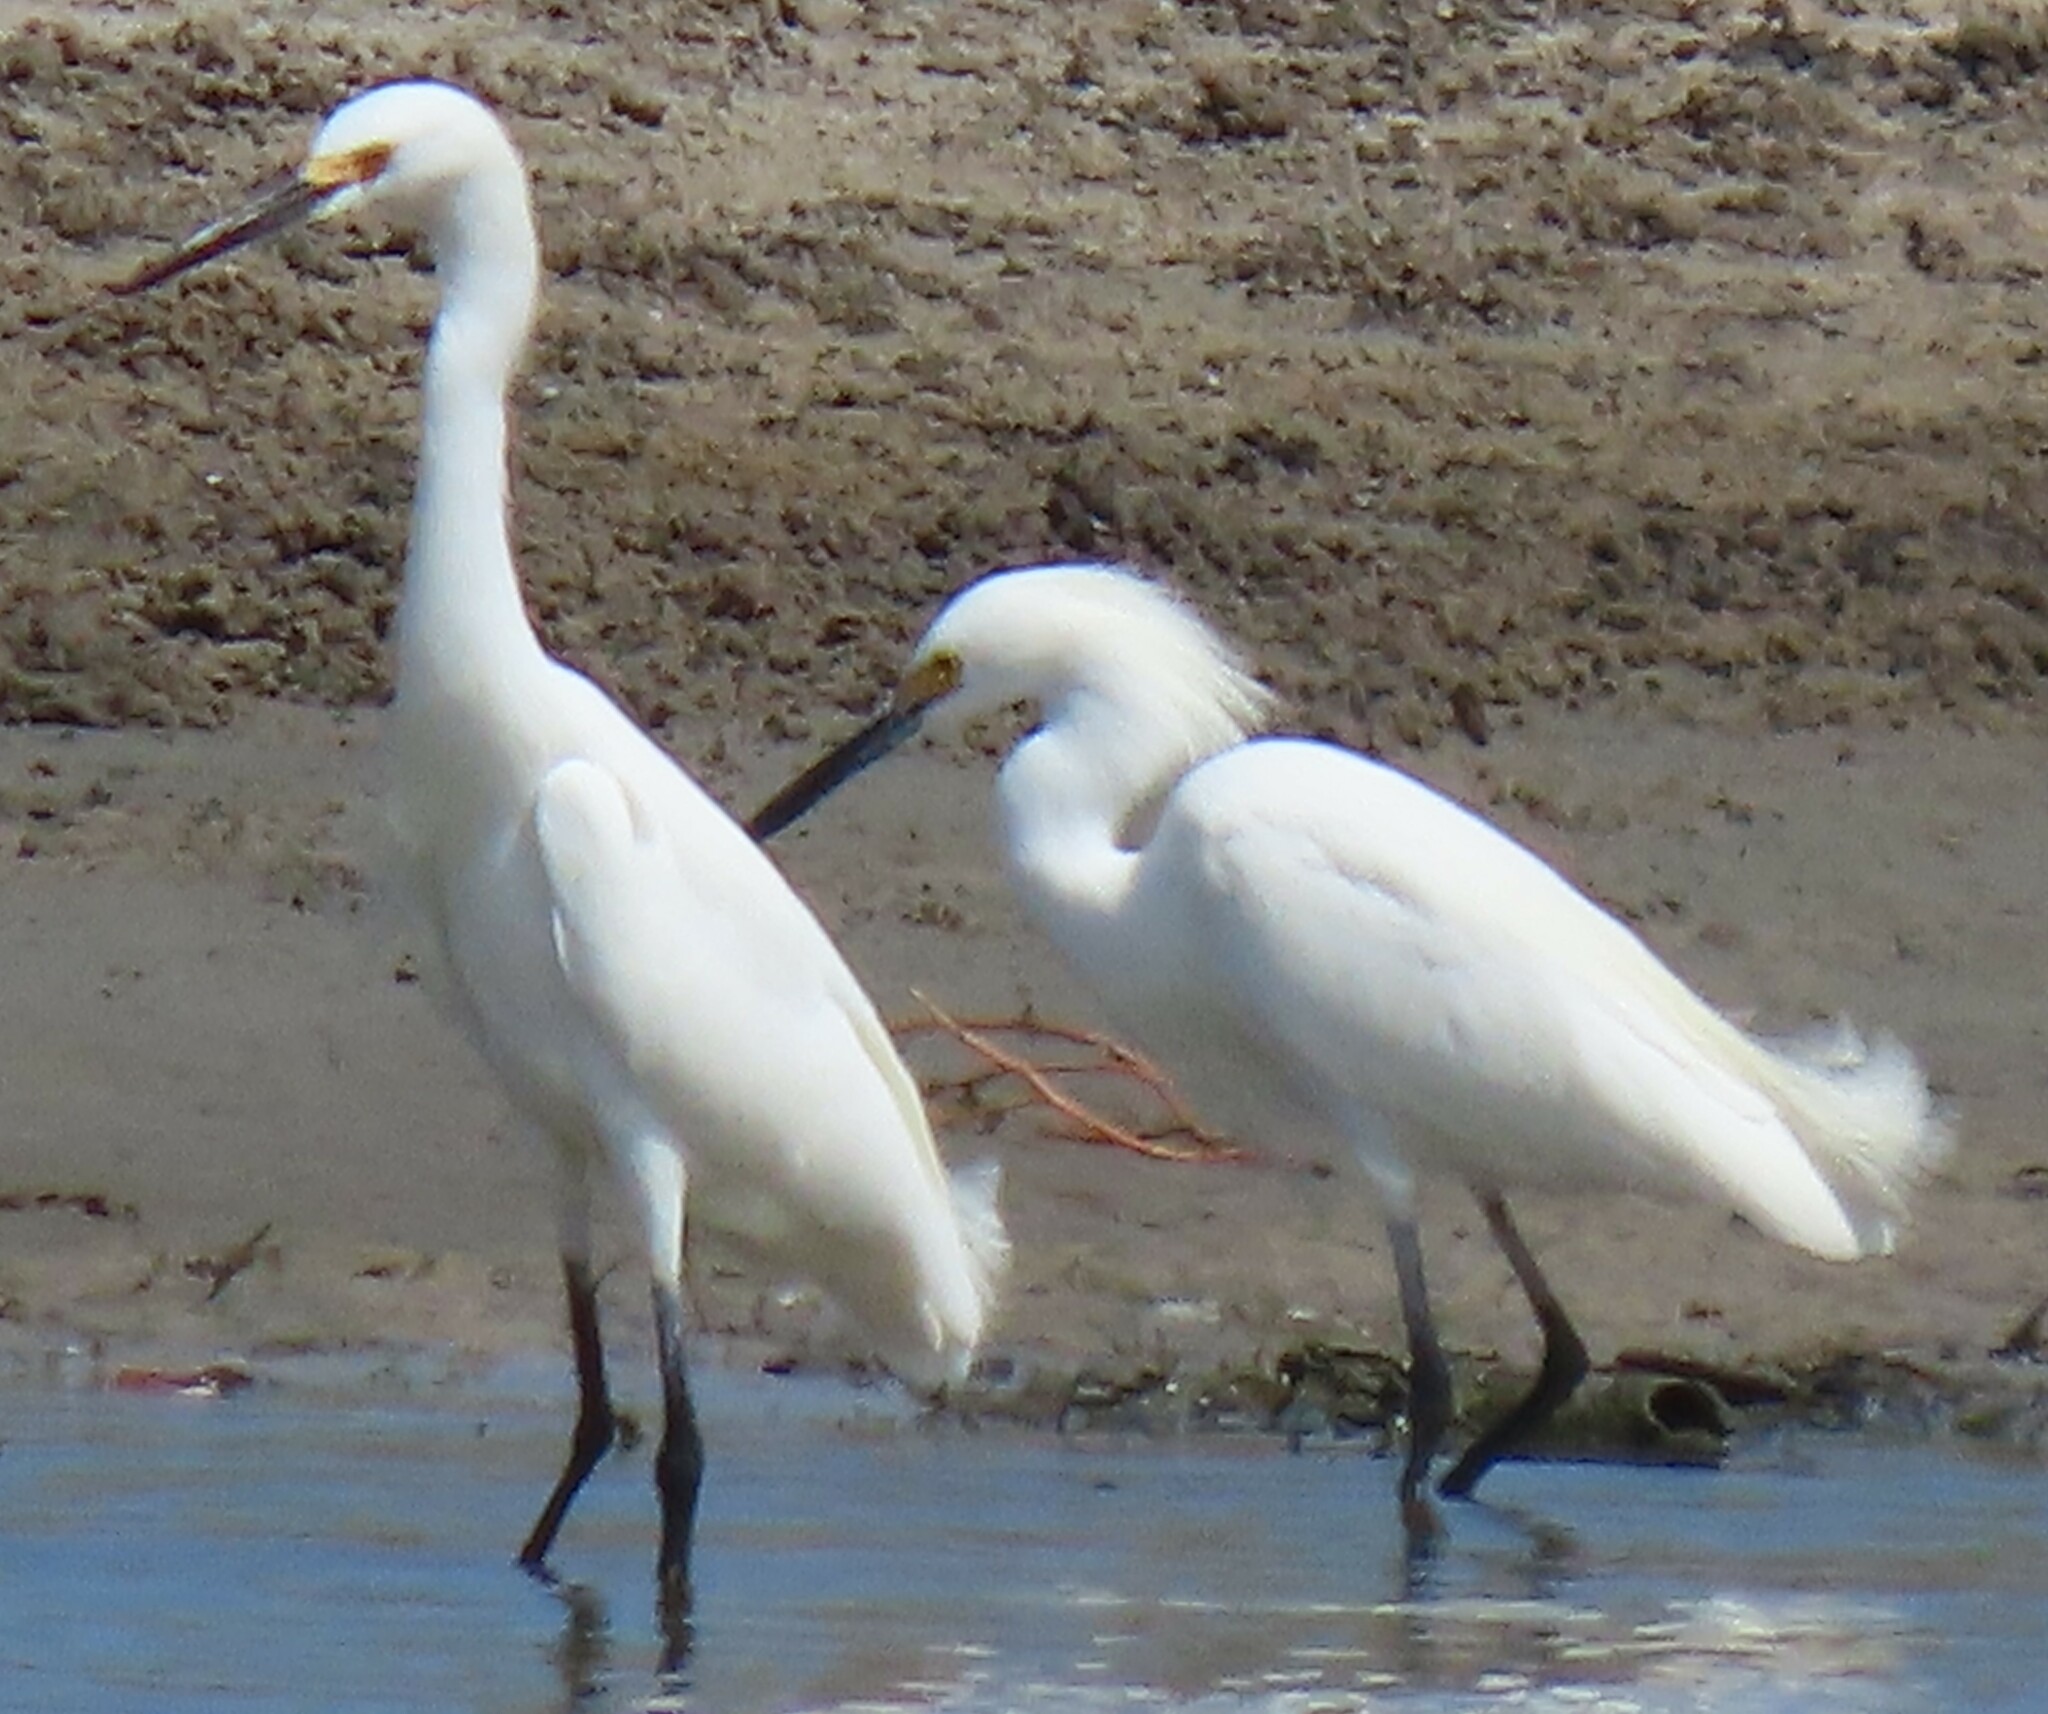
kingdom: Animalia
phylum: Chordata
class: Aves
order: Pelecaniformes
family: Ardeidae
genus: Egretta
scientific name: Egretta thula
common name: Snowy egret
